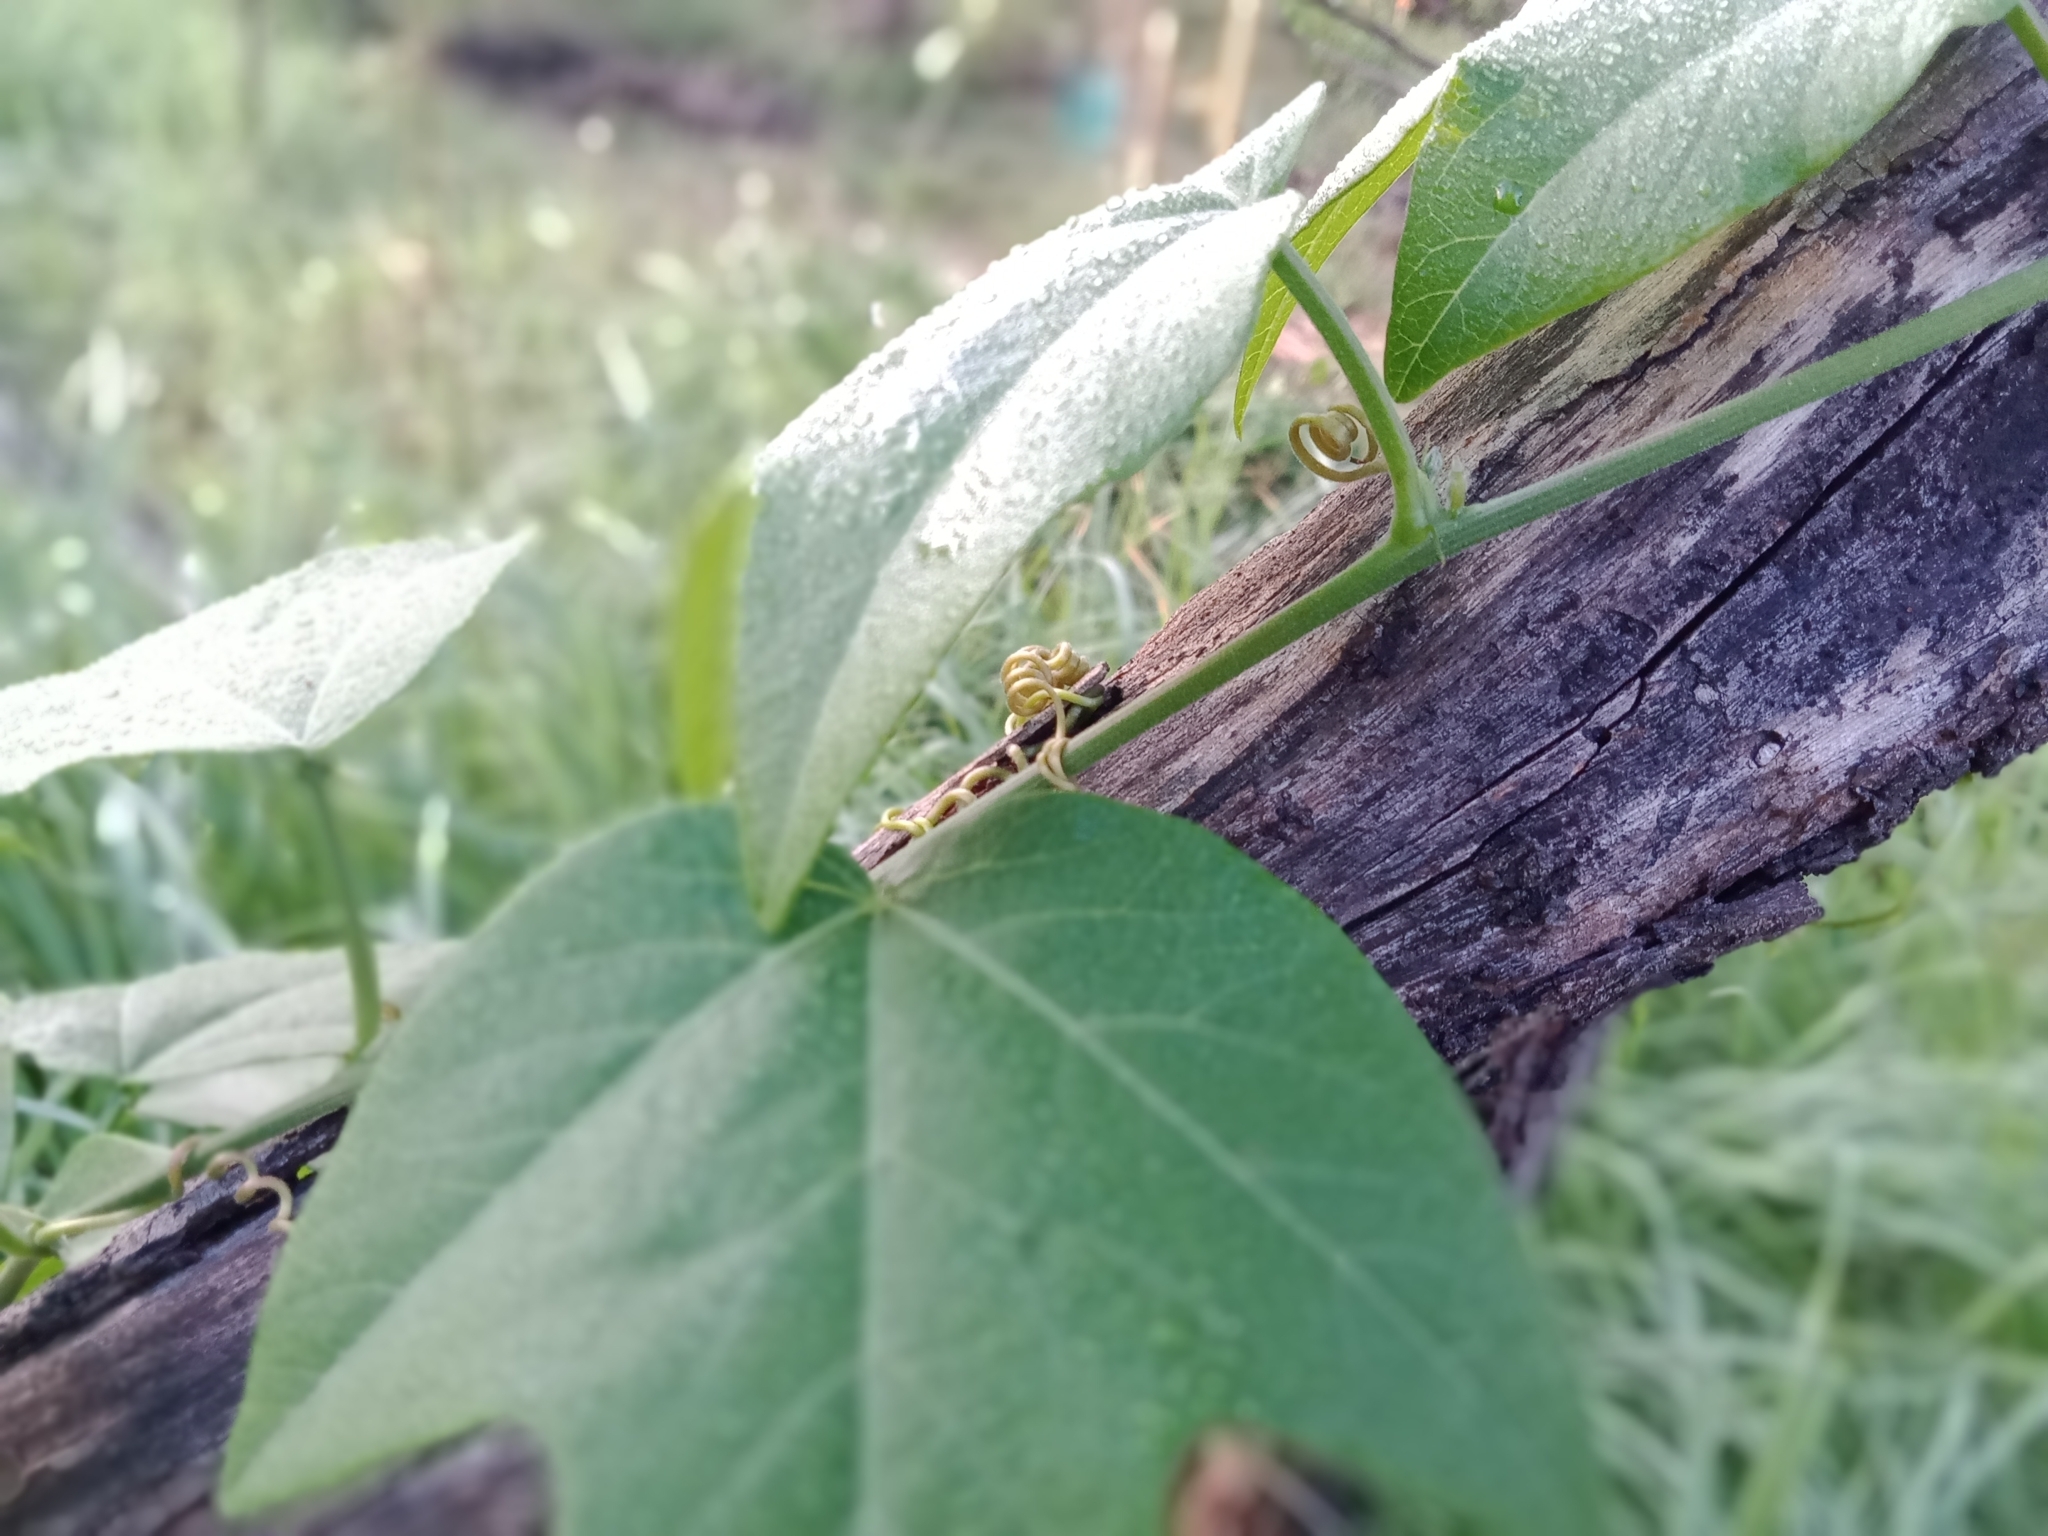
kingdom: Plantae
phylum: Tracheophyta
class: Magnoliopsida
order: Malpighiales
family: Passifloraceae
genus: Passiflora
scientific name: Passiflora herbertiana
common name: Yellow passionflower
